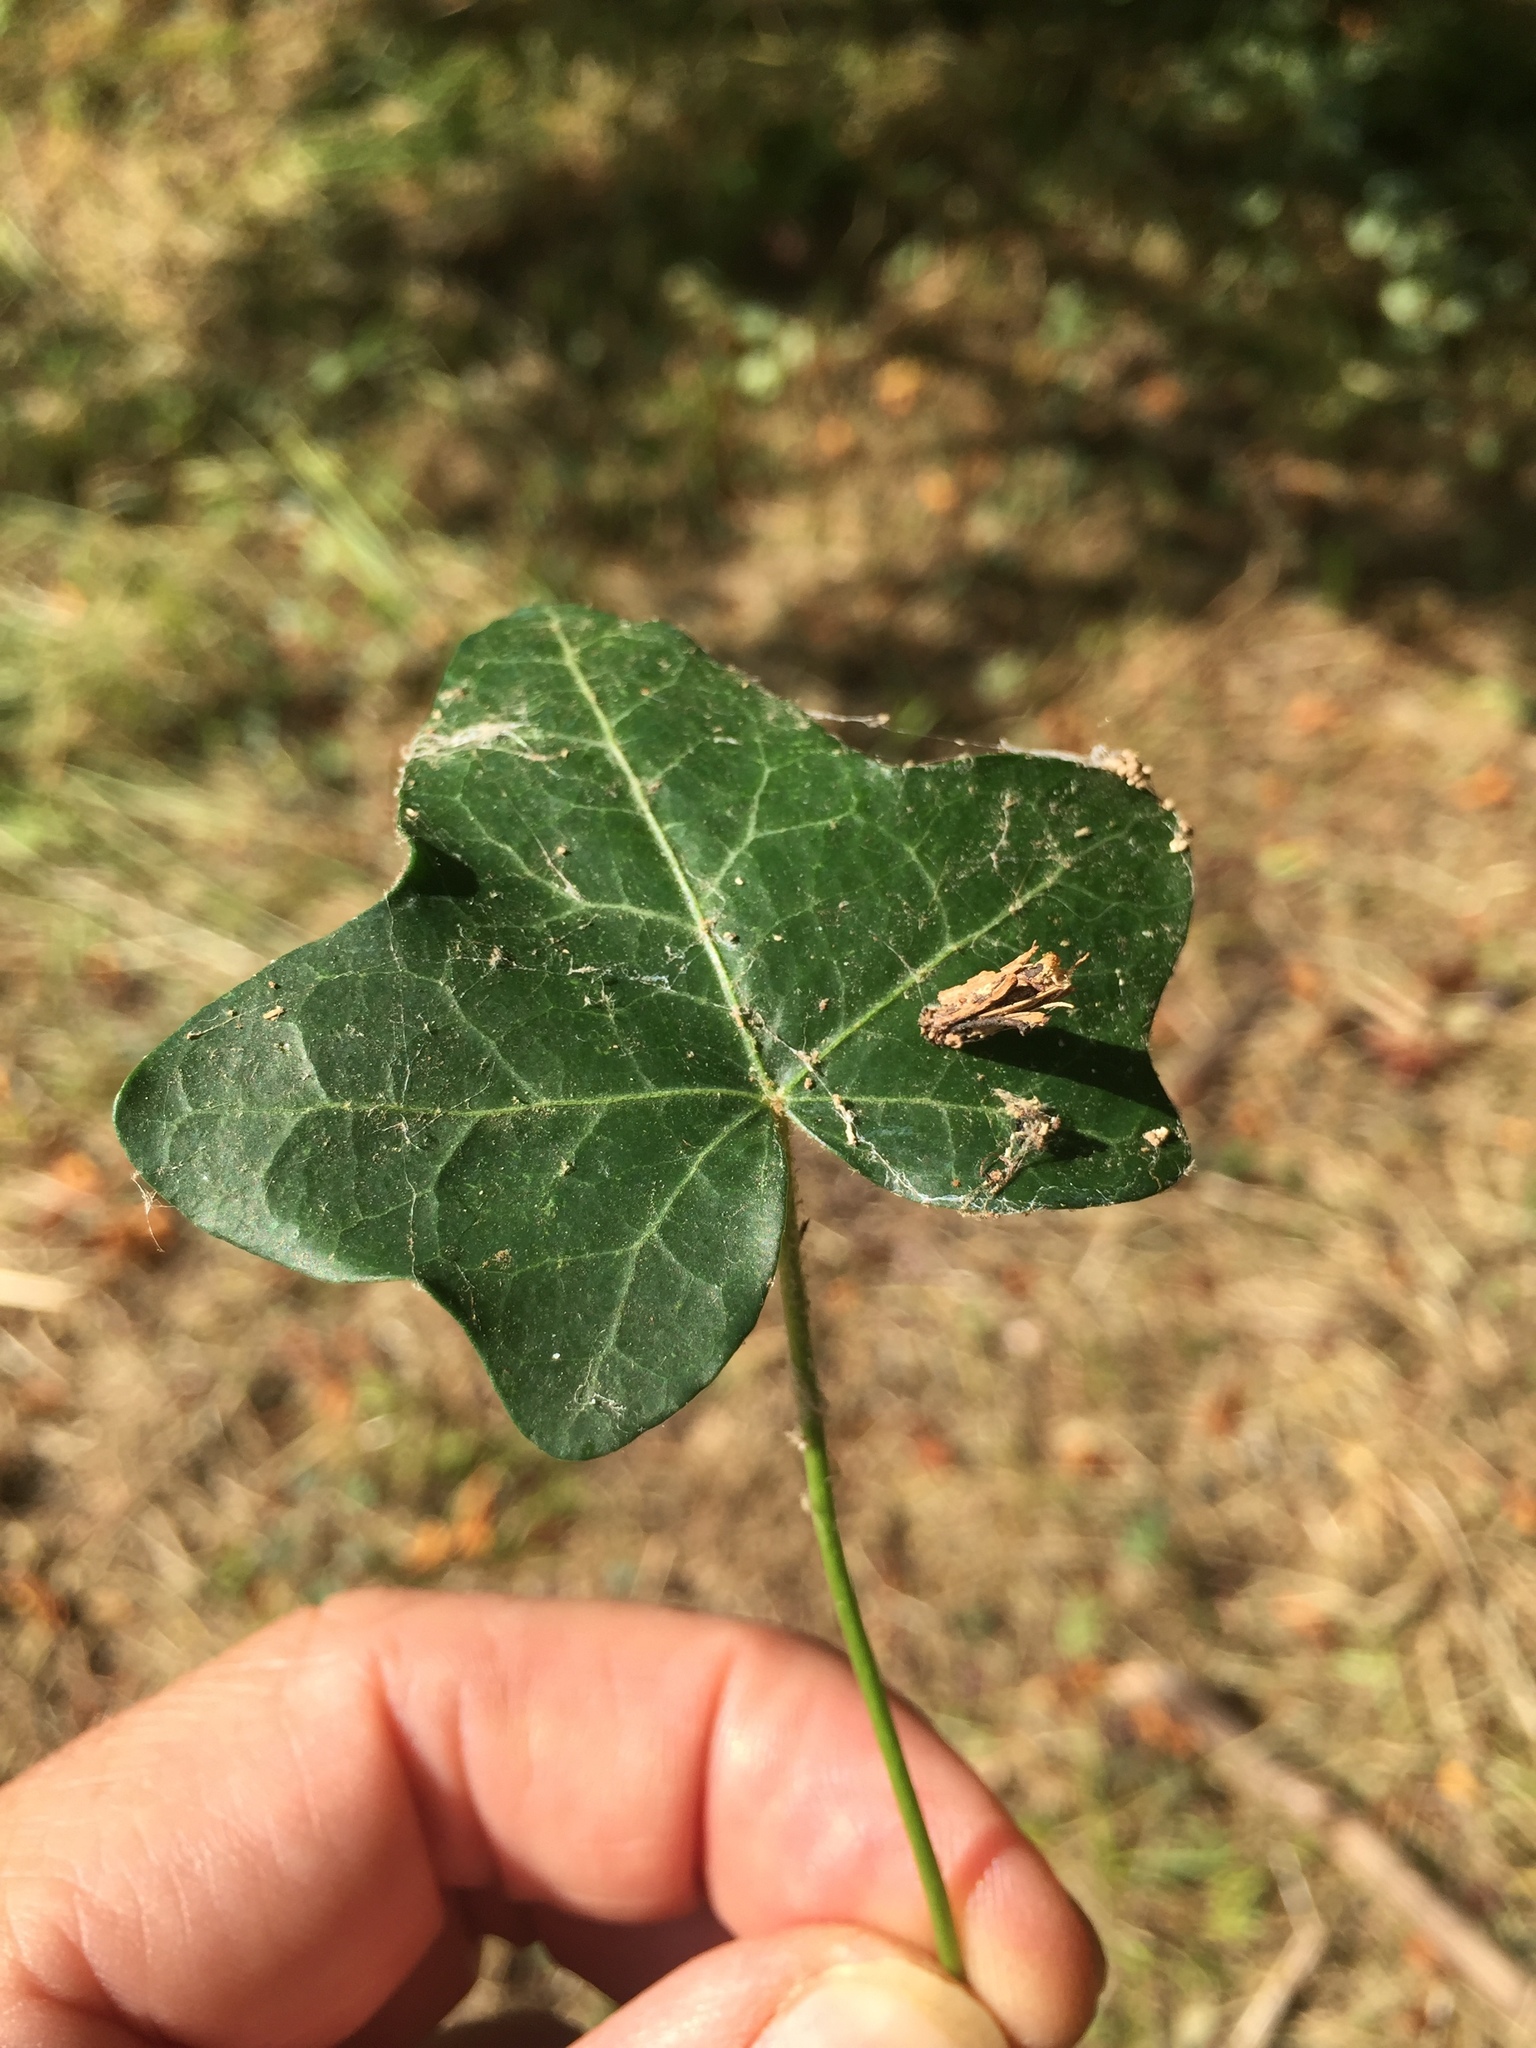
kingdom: Animalia
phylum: Arthropoda
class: Insecta
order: Lepidoptera
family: Psychidae
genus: Psyche
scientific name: Psyche casta
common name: Common sweep
